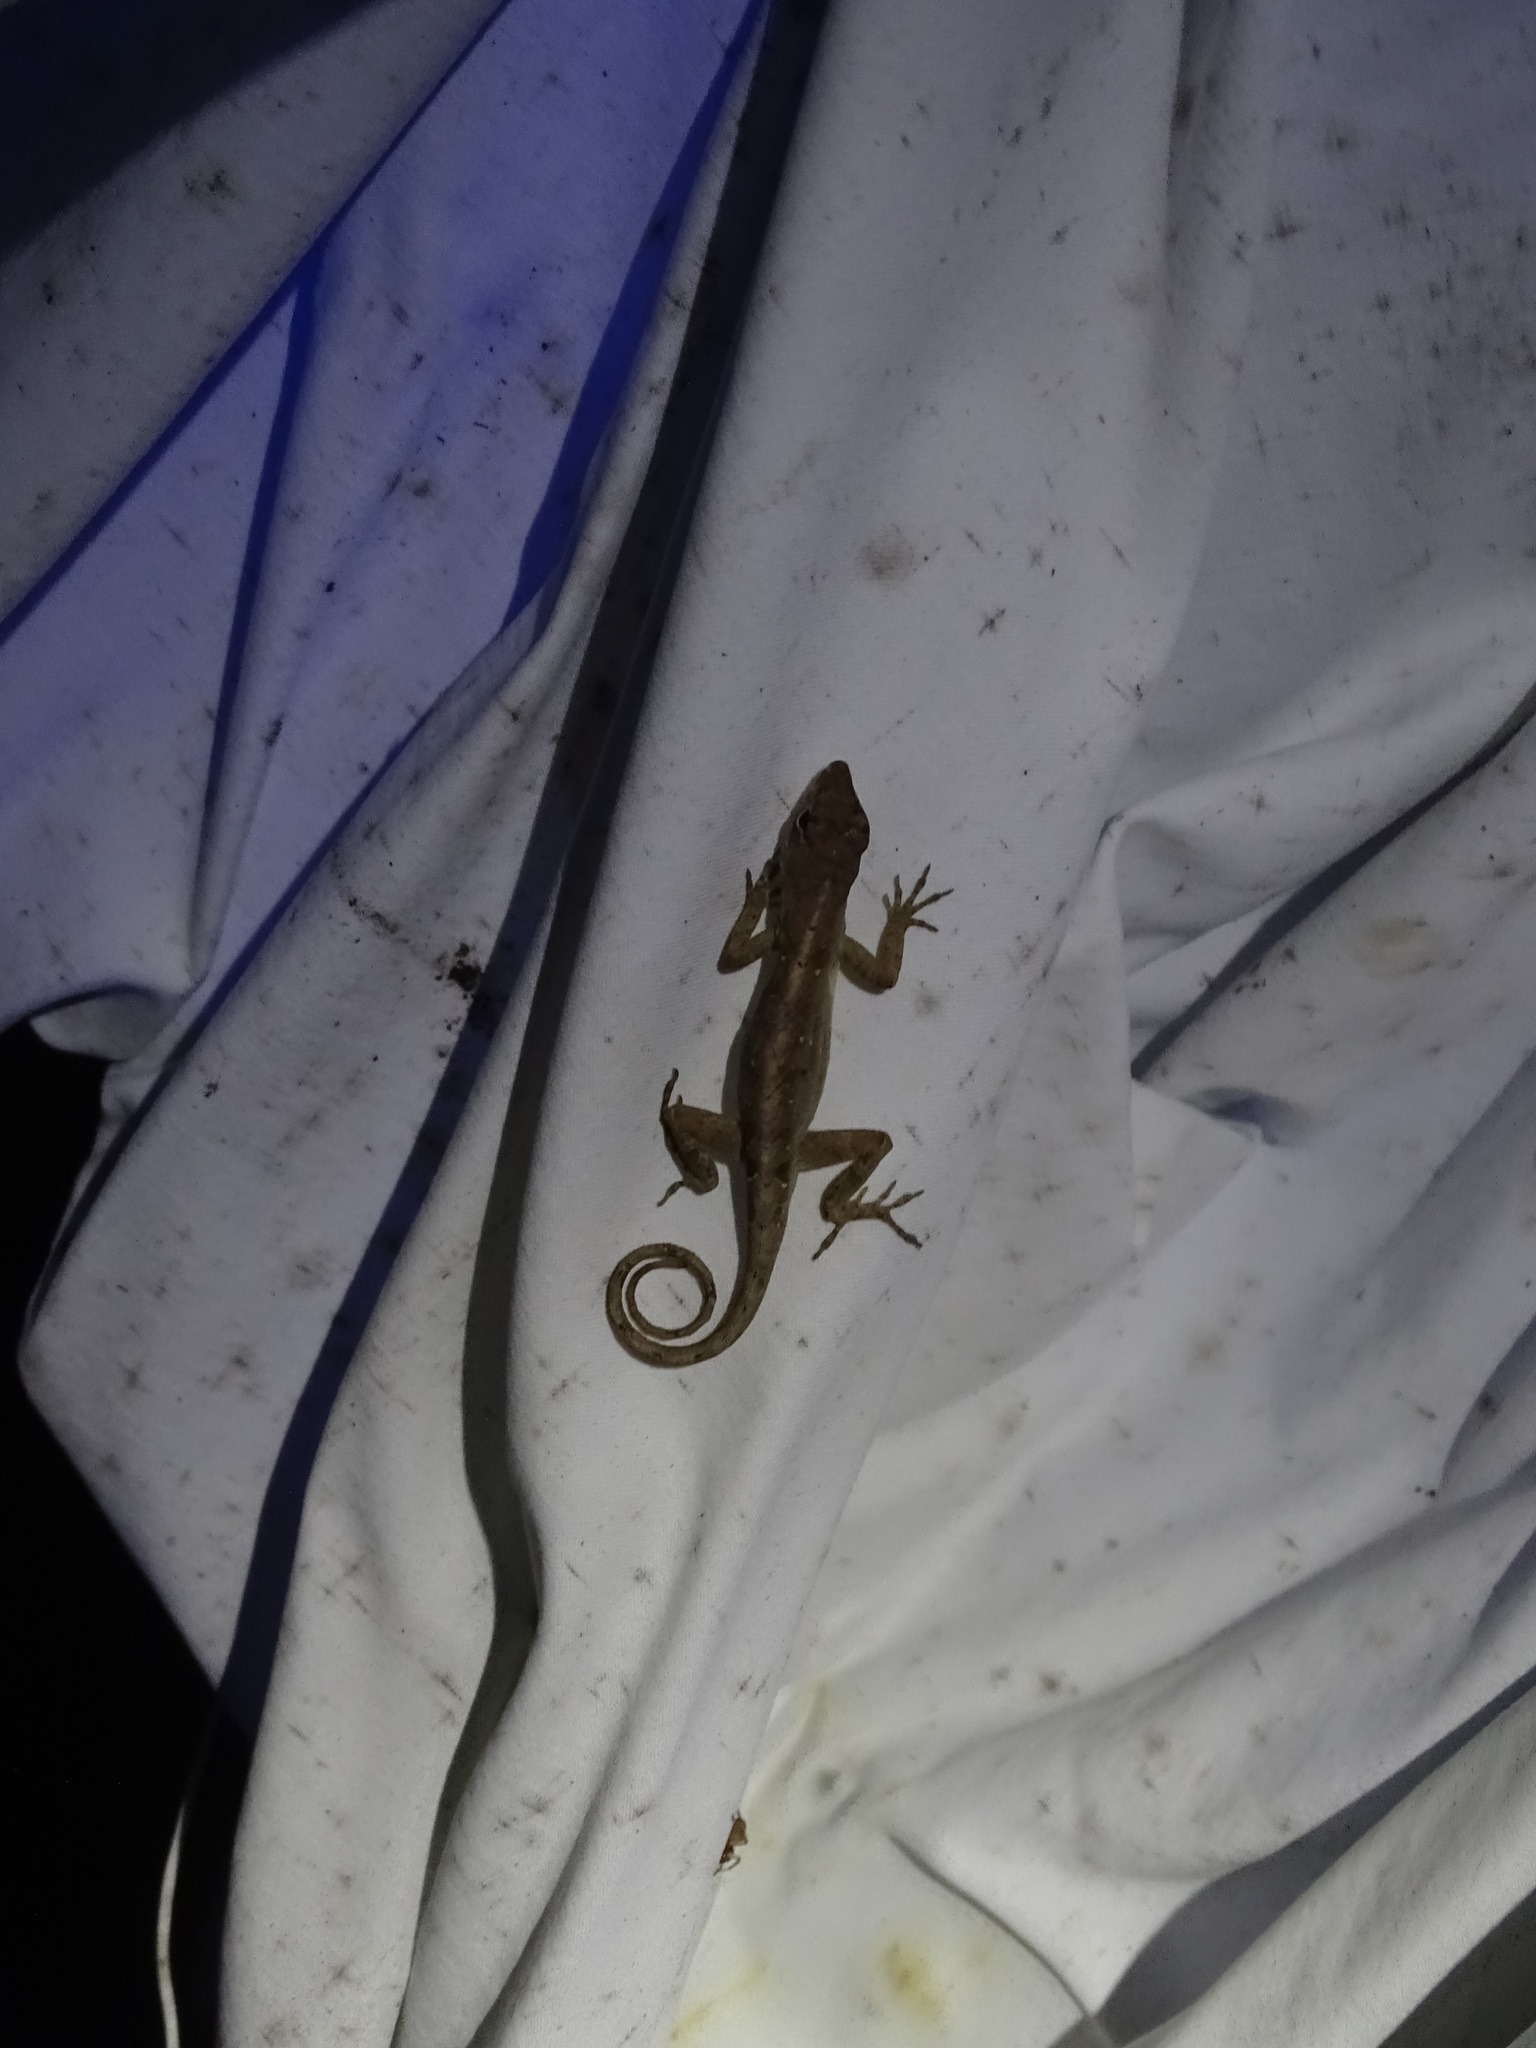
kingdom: Animalia
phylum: Chordata
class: Squamata
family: Dactyloidae
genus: Anolis
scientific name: Anolis sagrei
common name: Brown anole
